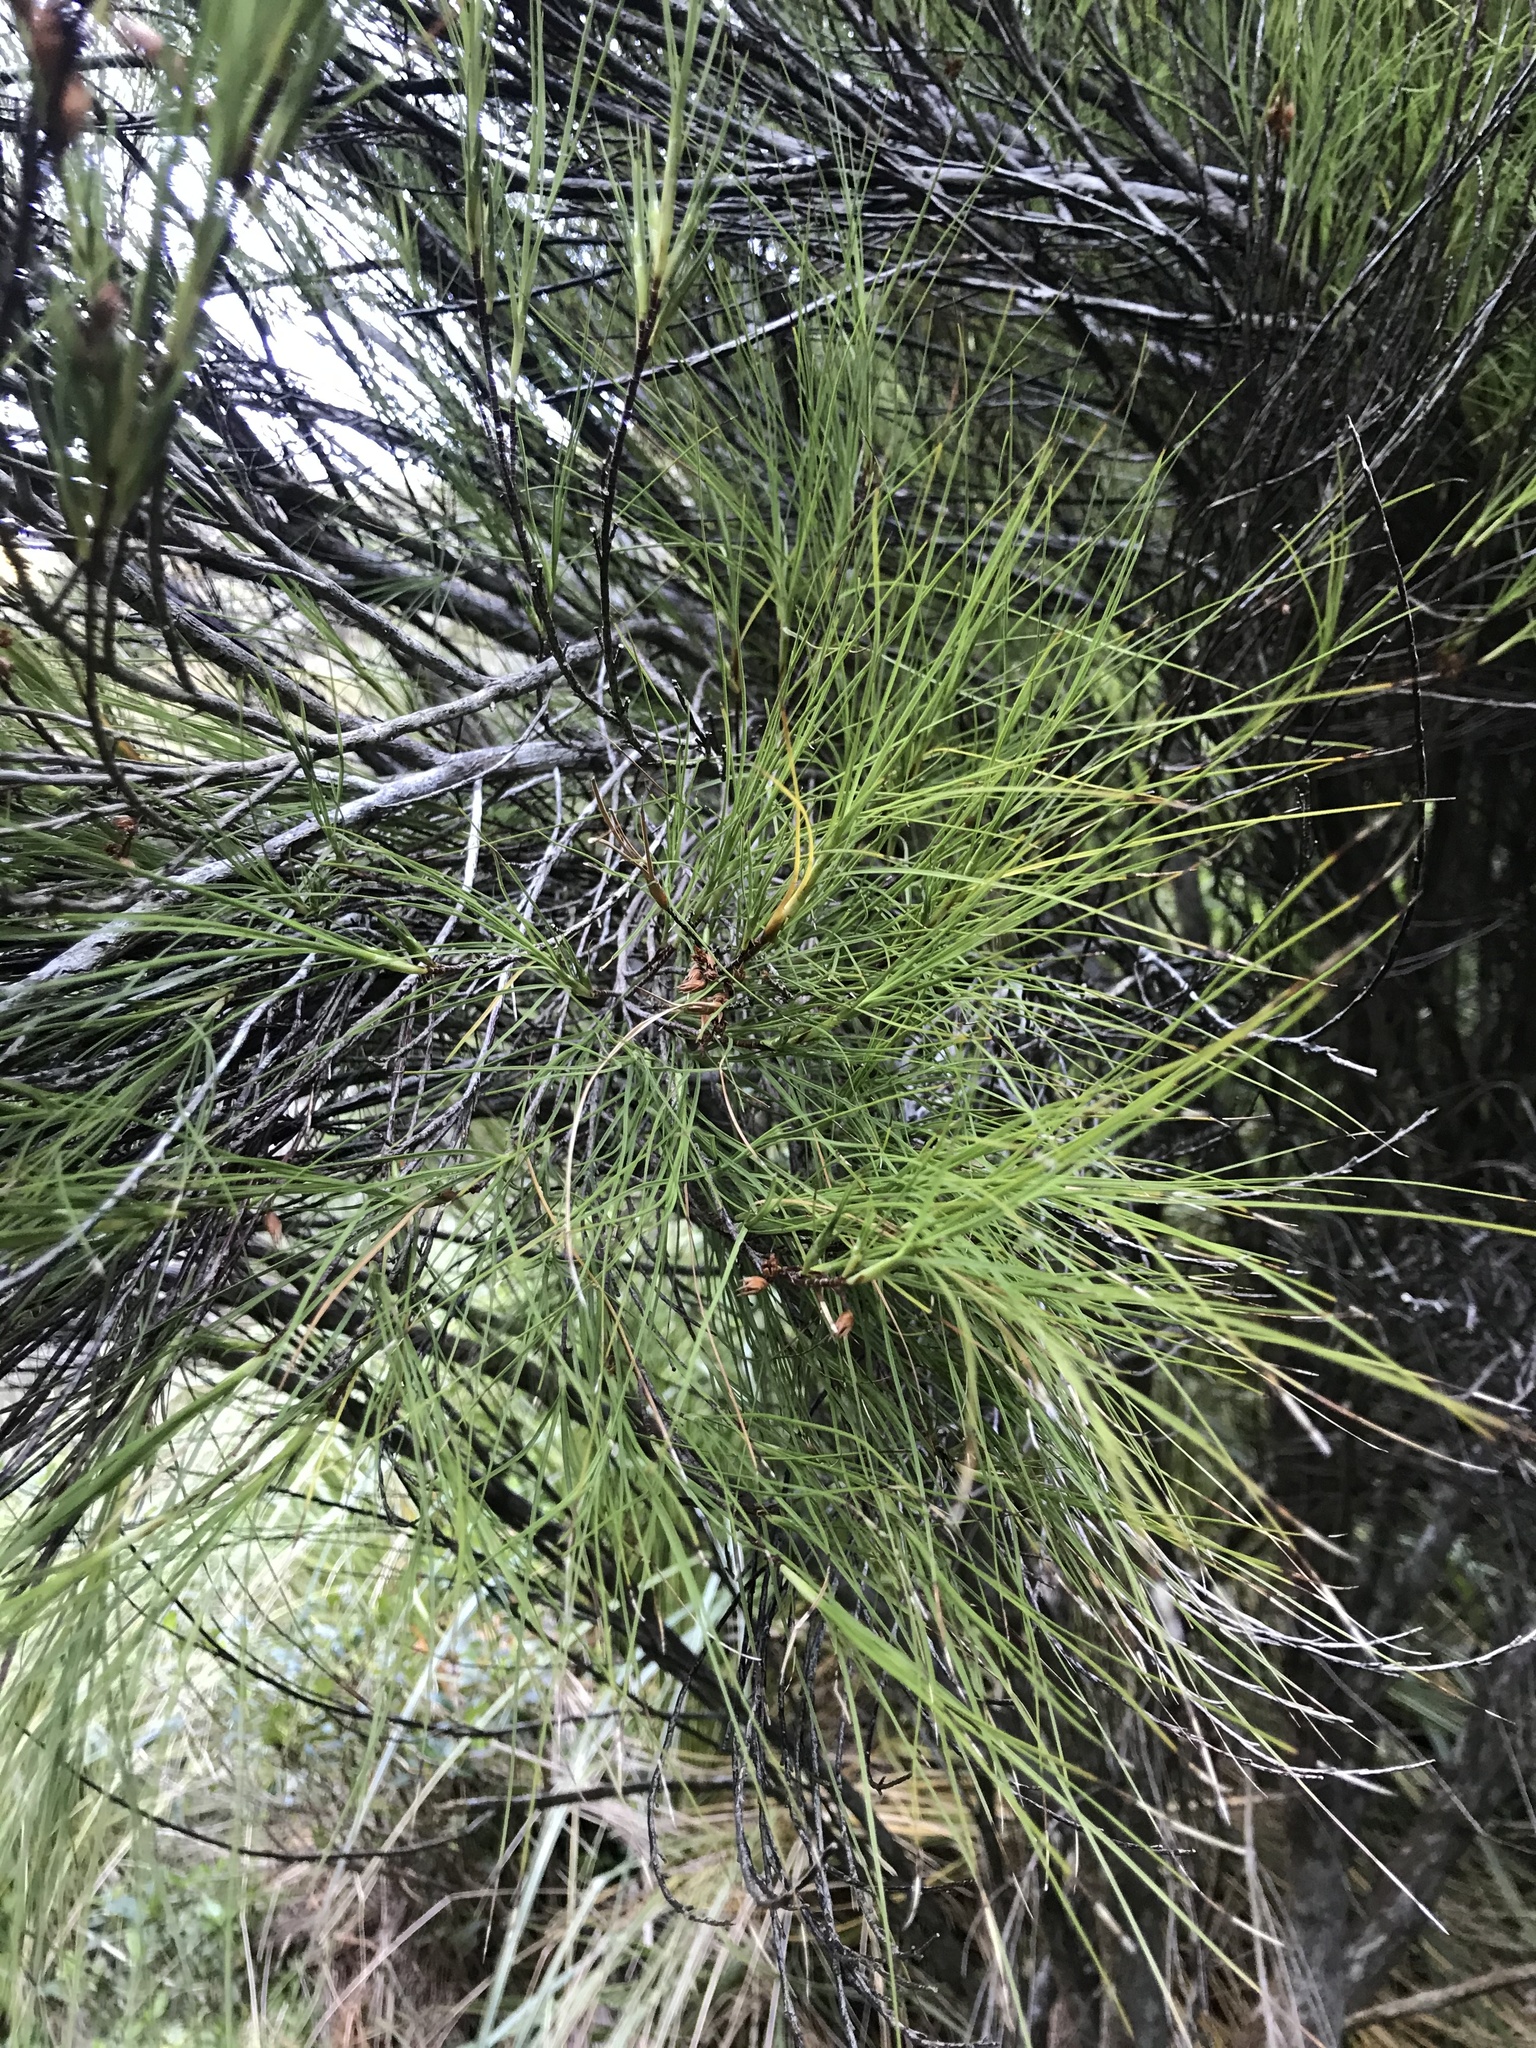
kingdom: Plantae
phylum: Tracheophyta
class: Magnoliopsida
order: Ericales
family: Ericaceae
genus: Dracophyllum
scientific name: Dracophyllum filifolium
